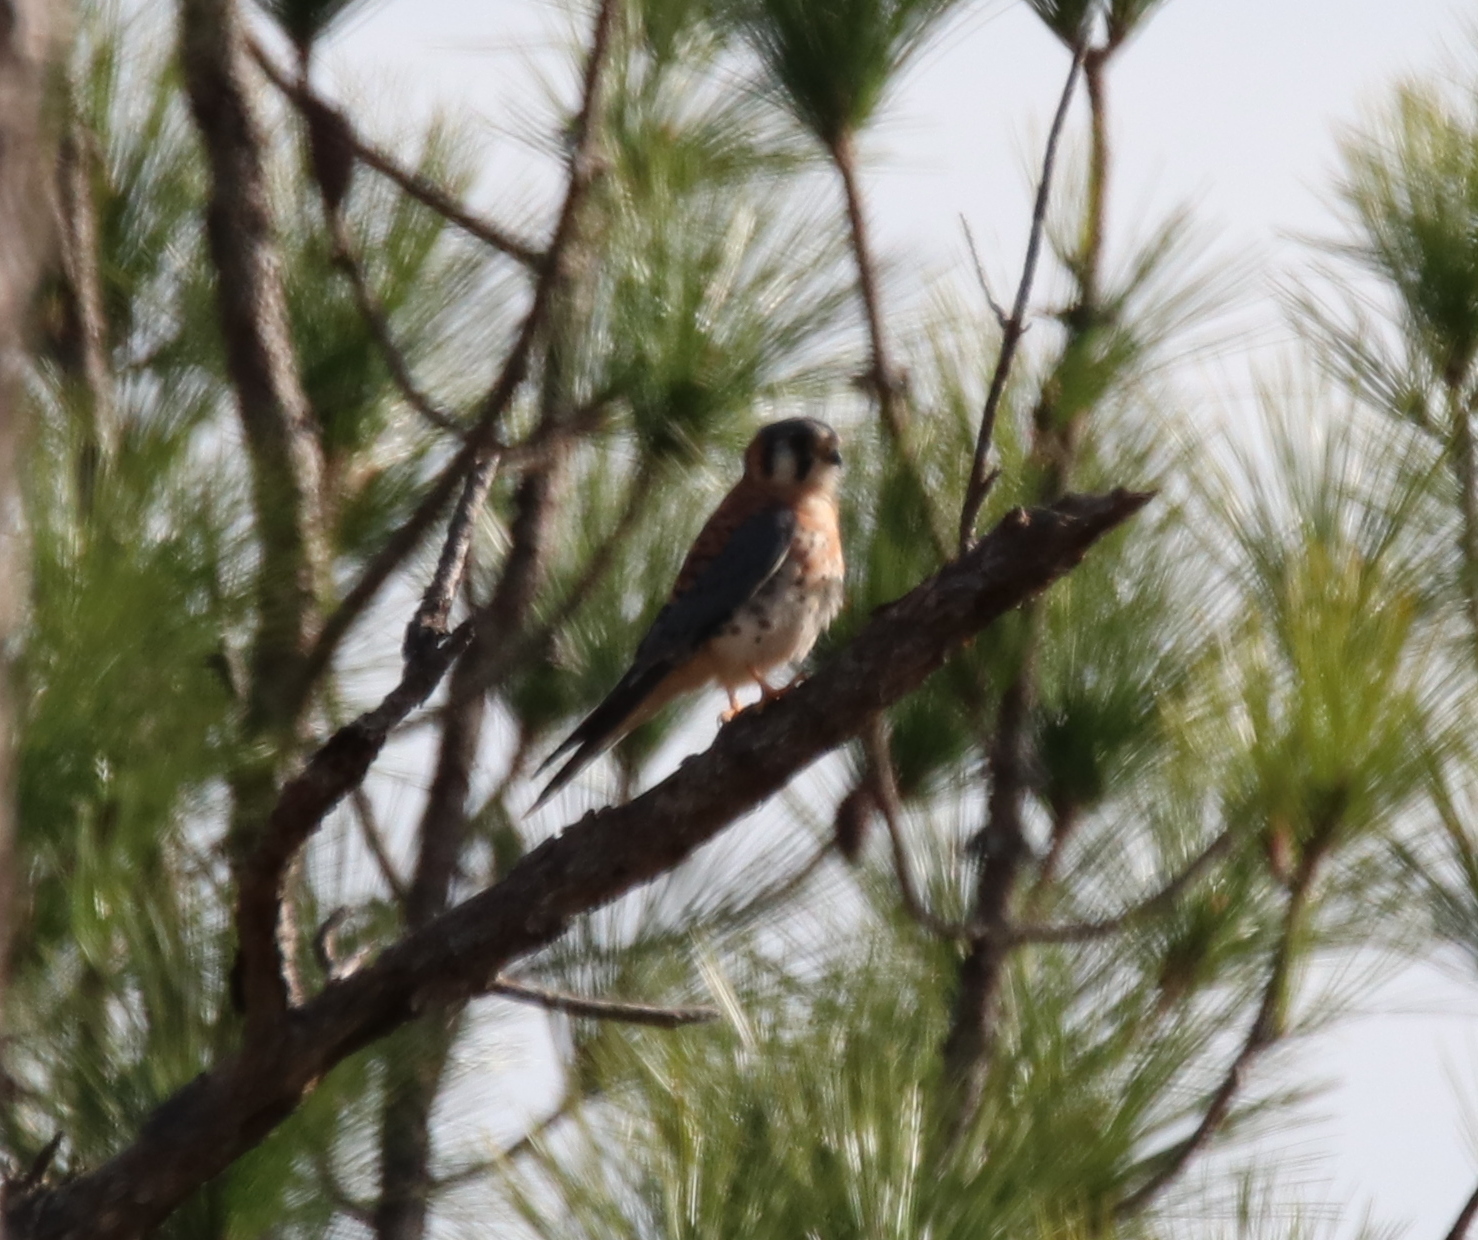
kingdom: Animalia
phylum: Chordata
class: Aves
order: Falconiformes
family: Falconidae
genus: Falco
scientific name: Falco sparverius
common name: American kestrel
